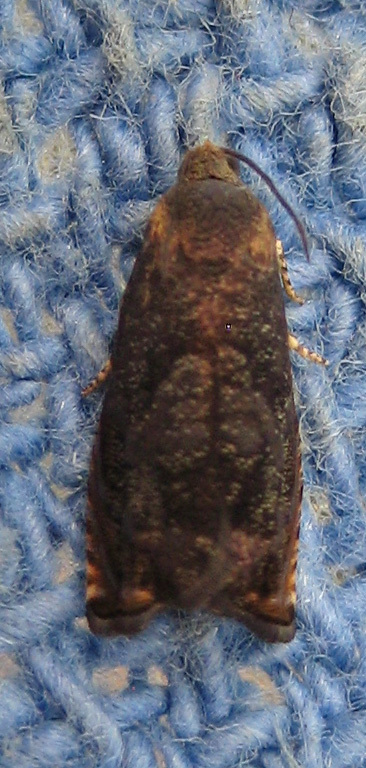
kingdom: Animalia
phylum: Arthropoda
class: Insecta
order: Lepidoptera
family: Tortricidae
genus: Cydia
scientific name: Cydia caryana
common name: Hickory shuckworm moth
